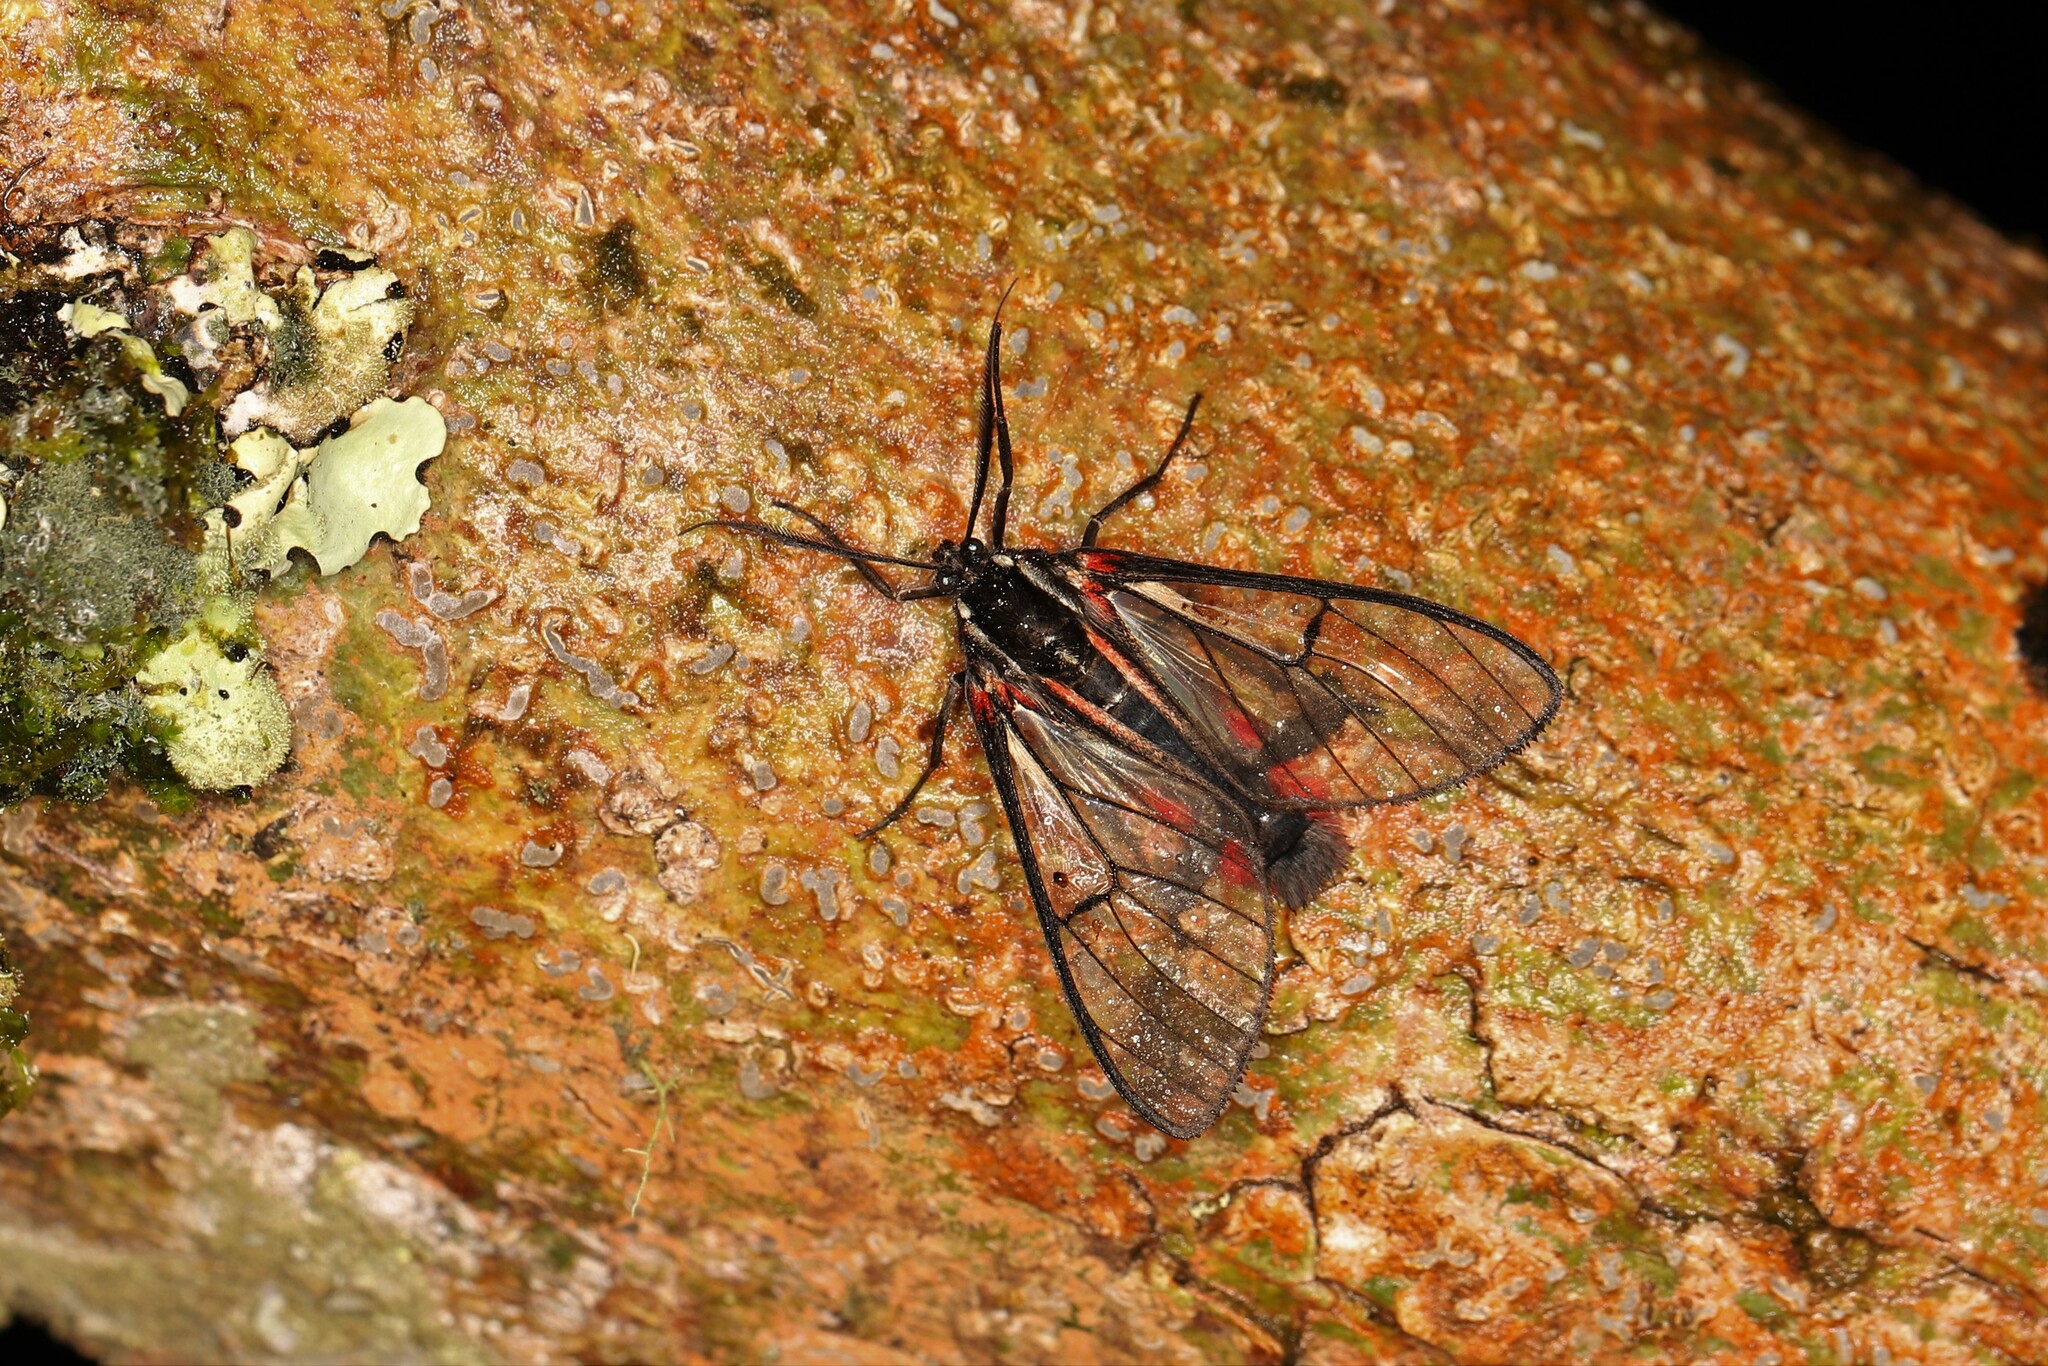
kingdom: Animalia
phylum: Arthropoda
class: Insecta
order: Lepidoptera
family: Erebidae
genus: Dinia
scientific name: Dinia mena
